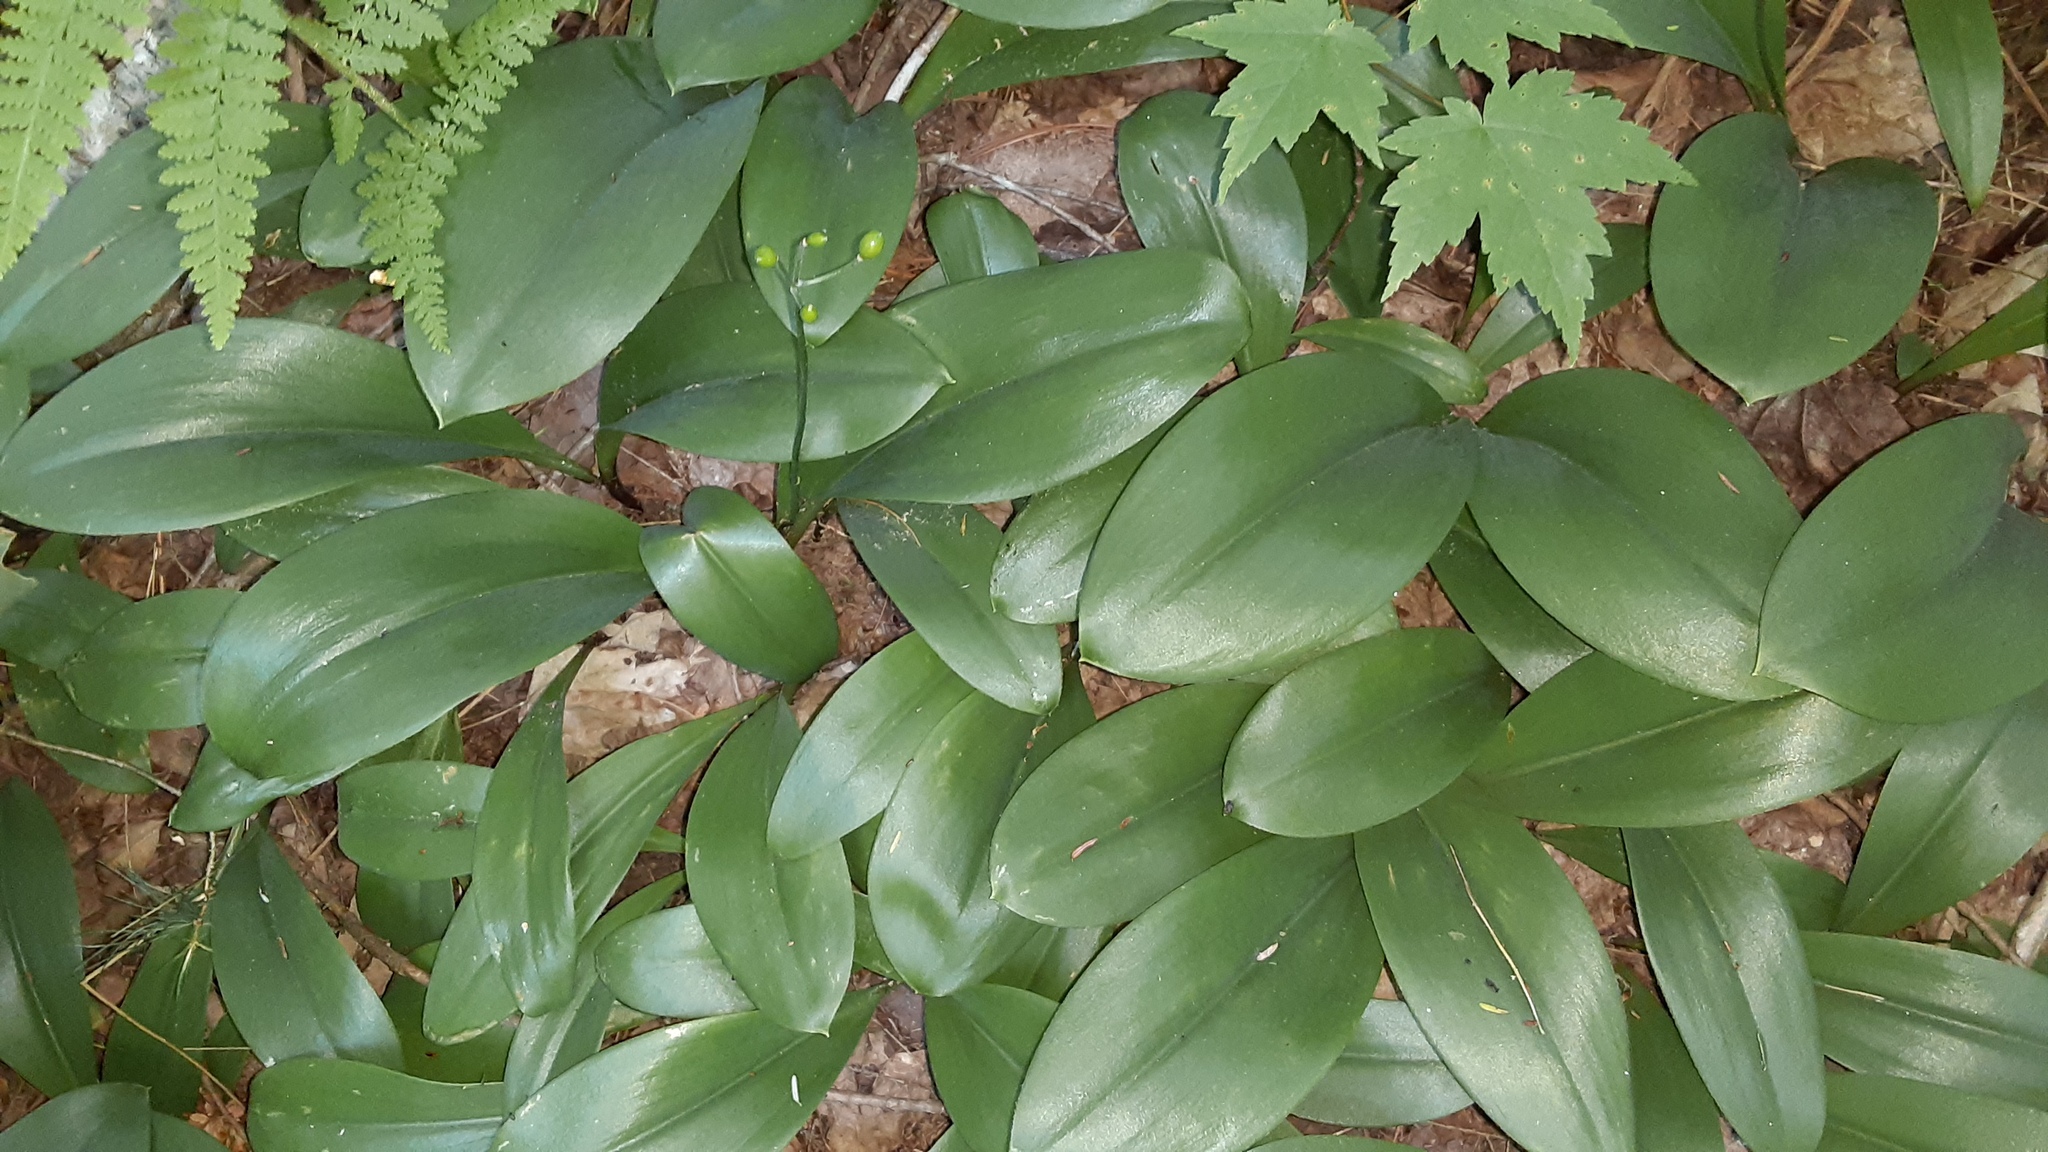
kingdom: Plantae
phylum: Tracheophyta
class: Liliopsida
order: Liliales
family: Liliaceae
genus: Clintonia
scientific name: Clintonia borealis
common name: Yellow clintonia
